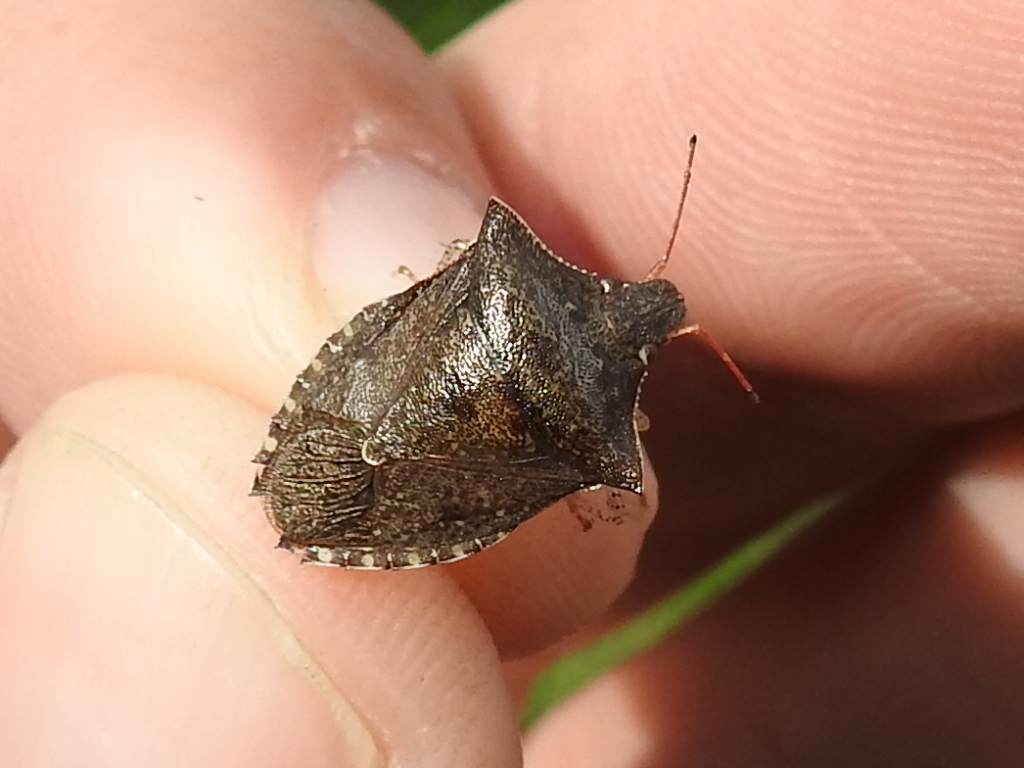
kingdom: Animalia
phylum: Arthropoda
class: Insecta
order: Hemiptera
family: Pentatomidae
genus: Euschistus
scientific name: Euschistus tristigmus
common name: Dusky stink bug
